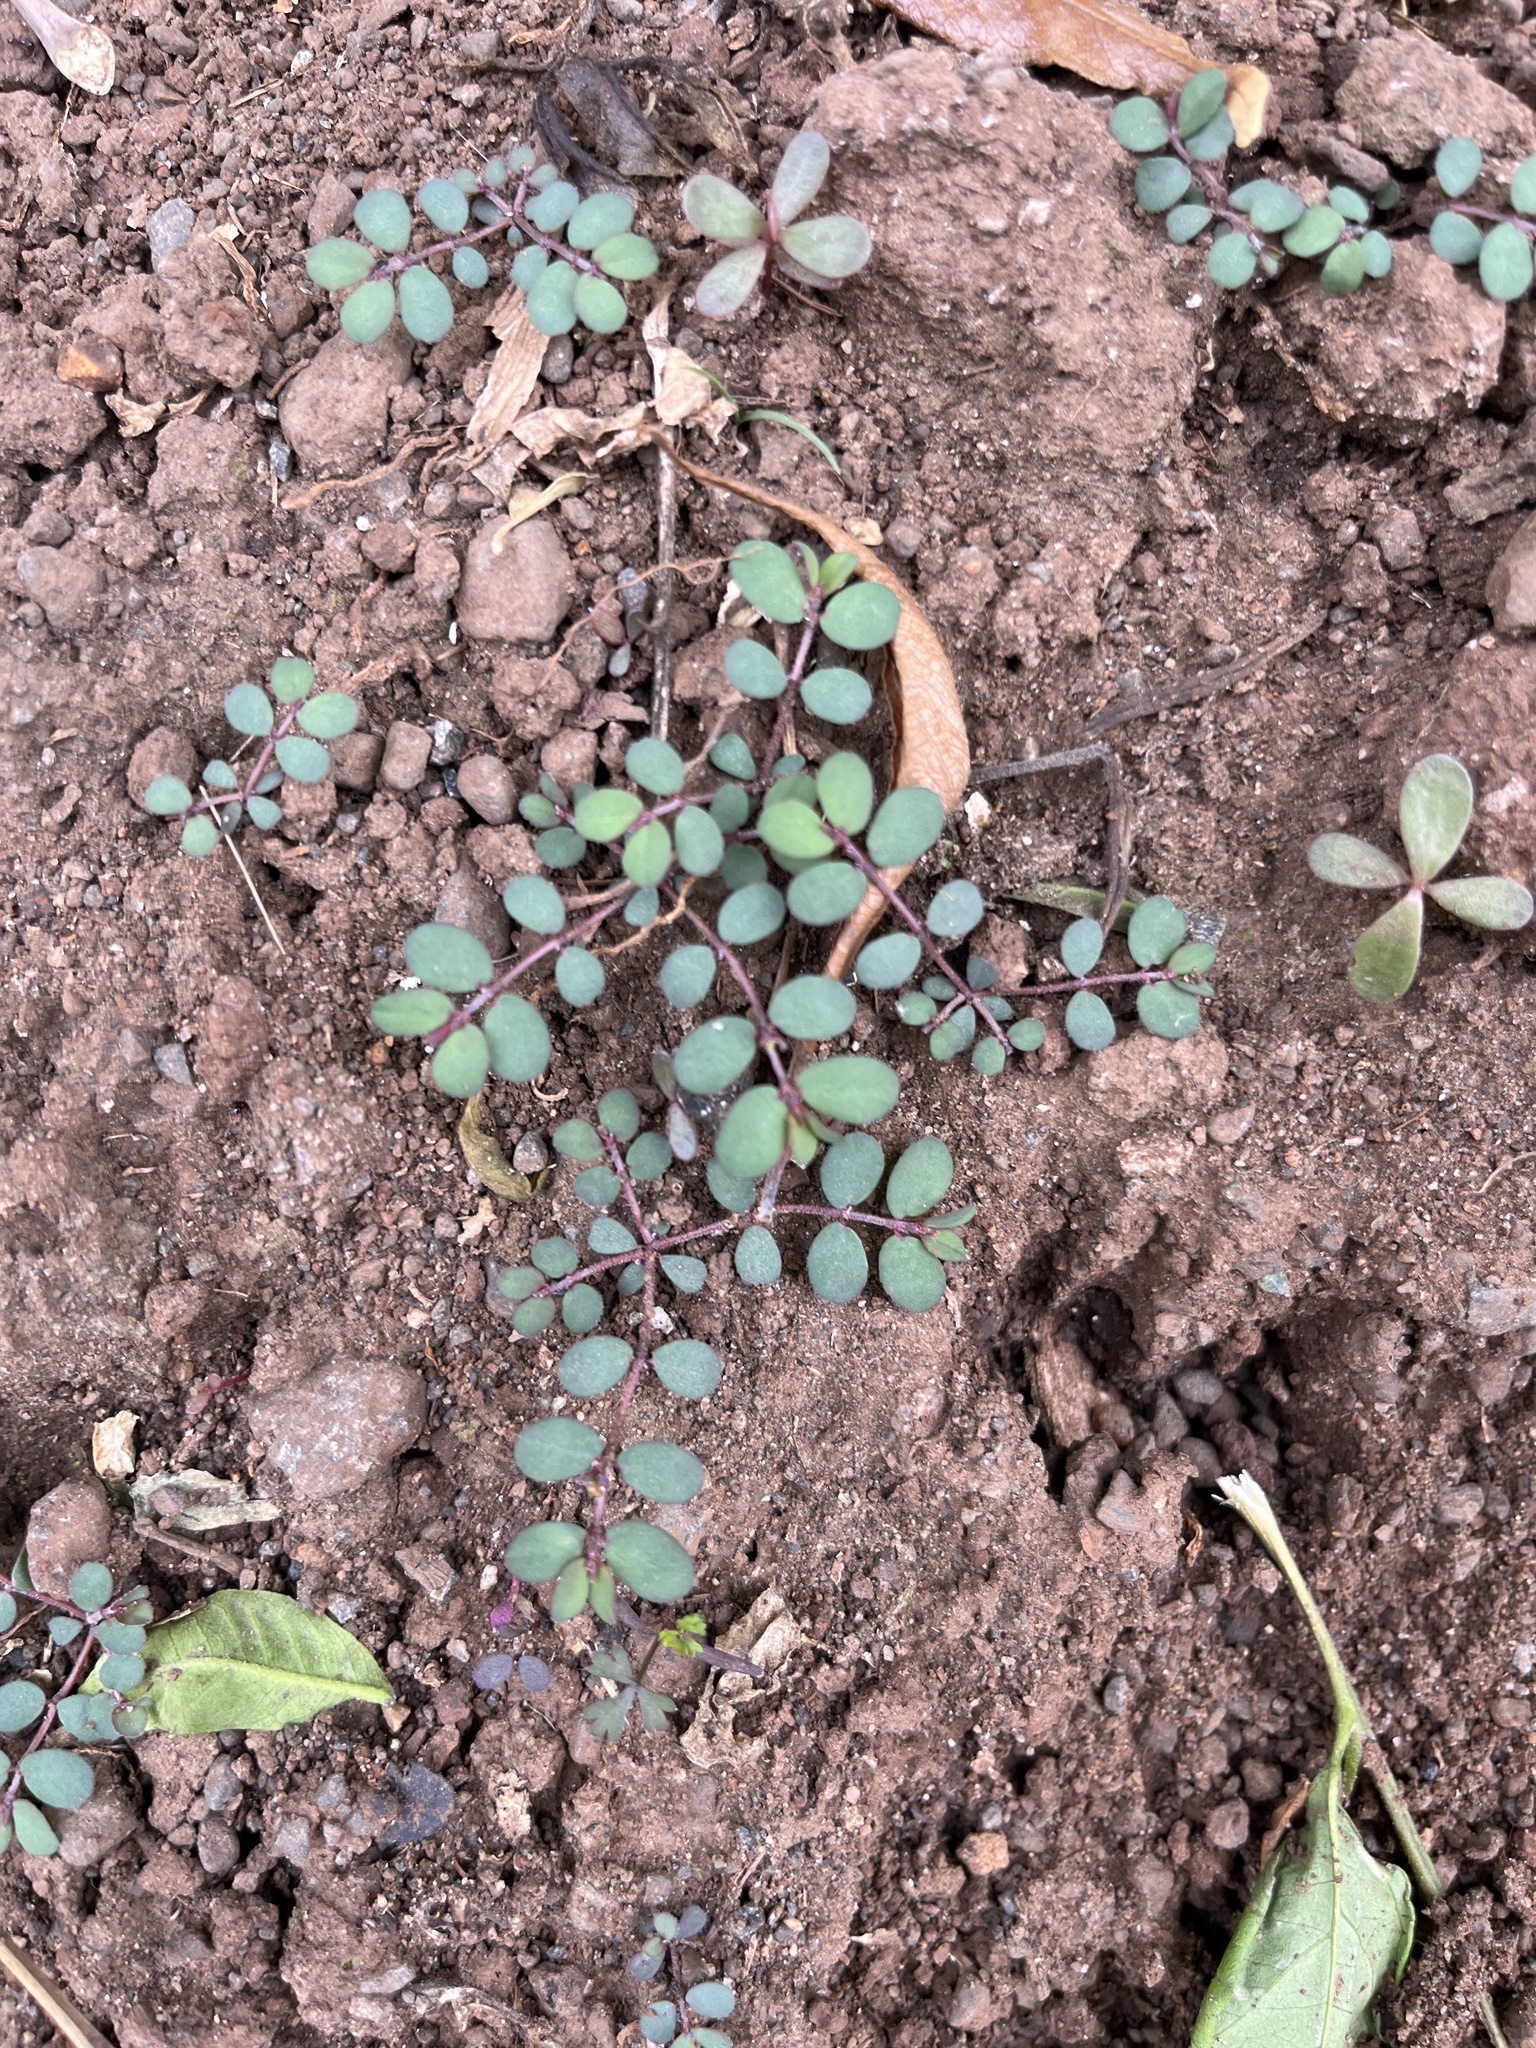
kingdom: Plantae
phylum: Tracheophyta
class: Magnoliopsida
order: Malpighiales
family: Euphorbiaceae
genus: Euphorbia
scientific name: Euphorbia prostrata
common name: Prostrate sandmat
